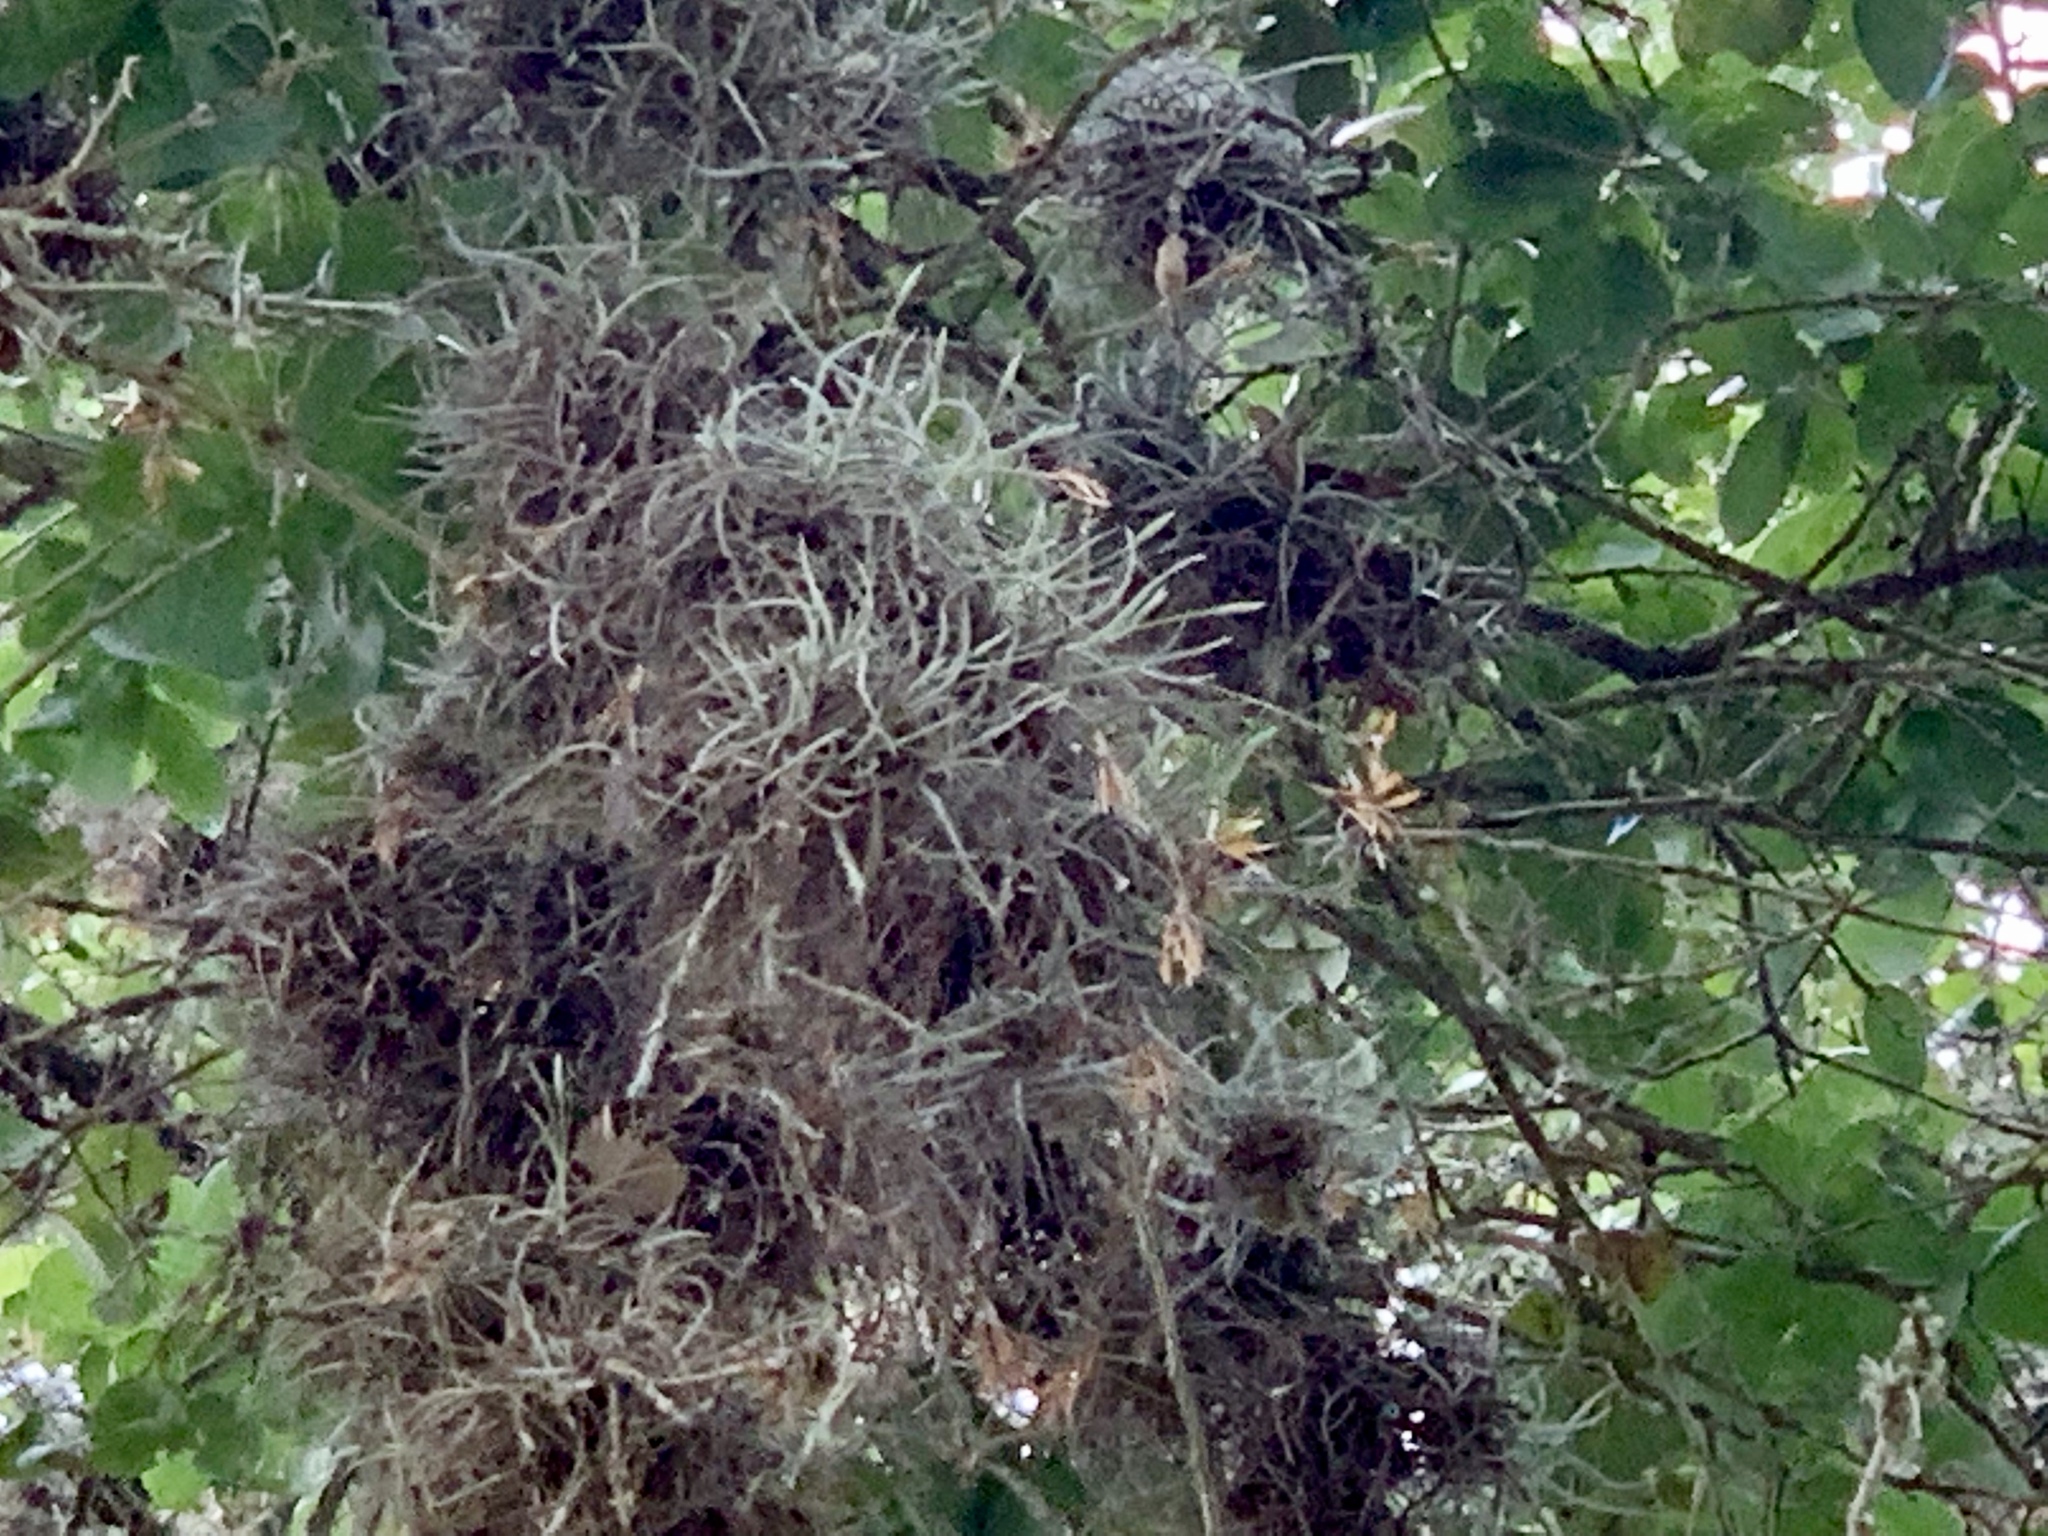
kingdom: Plantae
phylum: Tracheophyta
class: Liliopsida
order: Poales
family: Bromeliaceae
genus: Tillandsia
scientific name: Tillandsia recurvata
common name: Small ballmoss
